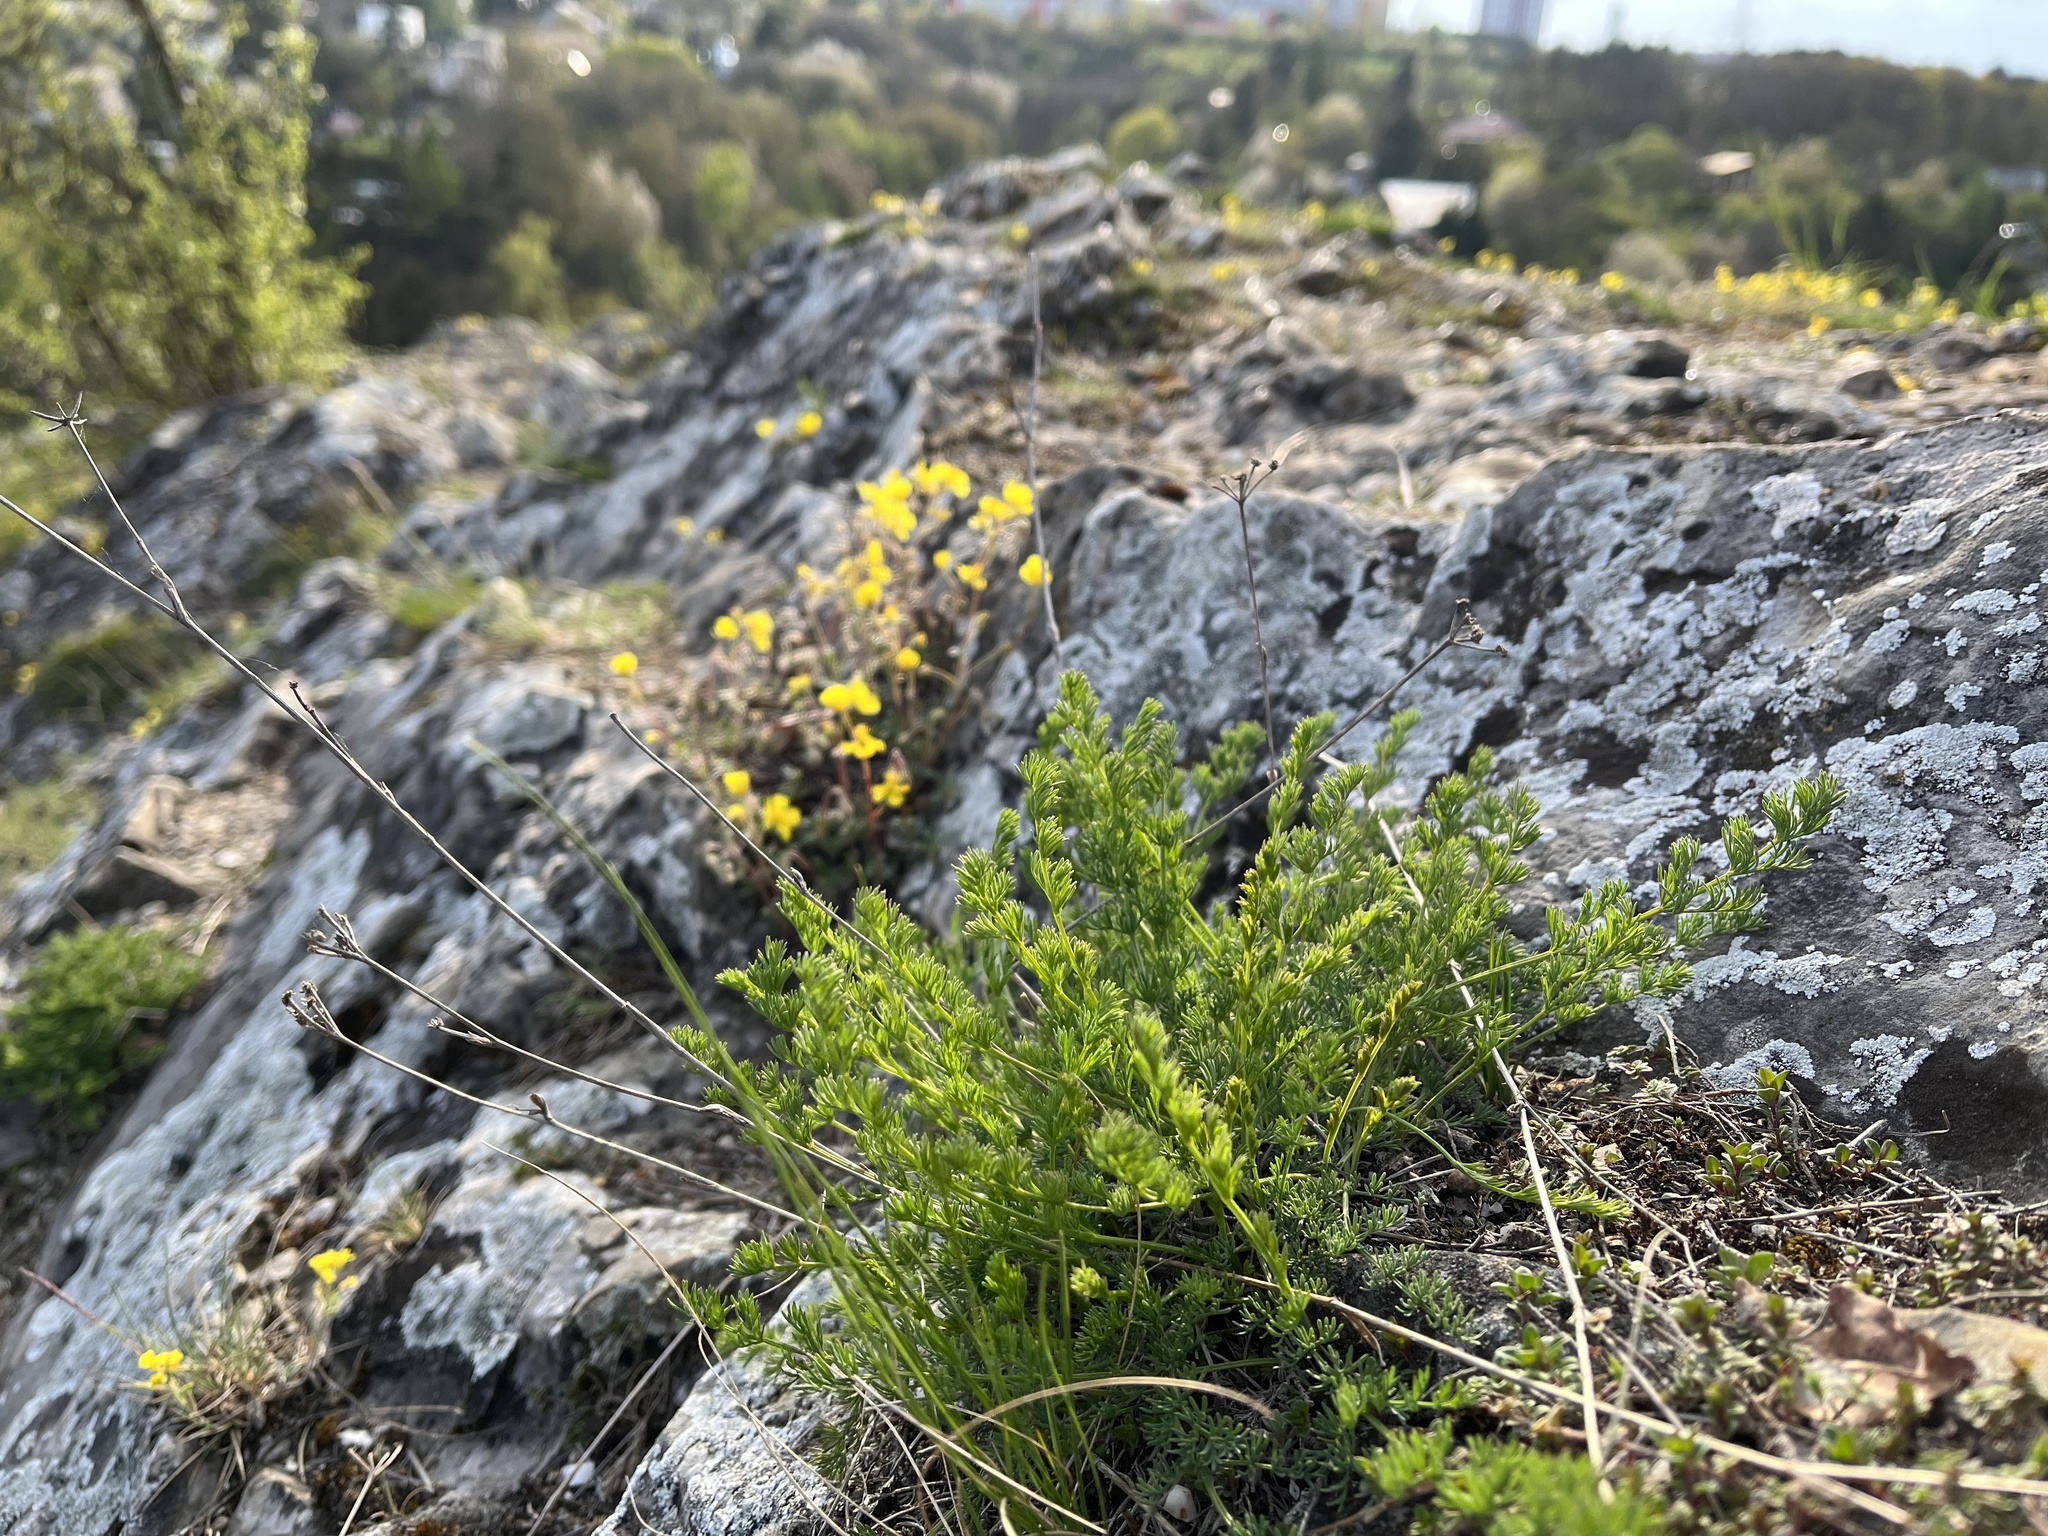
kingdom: Plantae
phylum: Tracheophyta
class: Magnoliopsida
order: Apiales
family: Apiaceae
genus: Hippomarathrum
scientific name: Hippomarathrum
